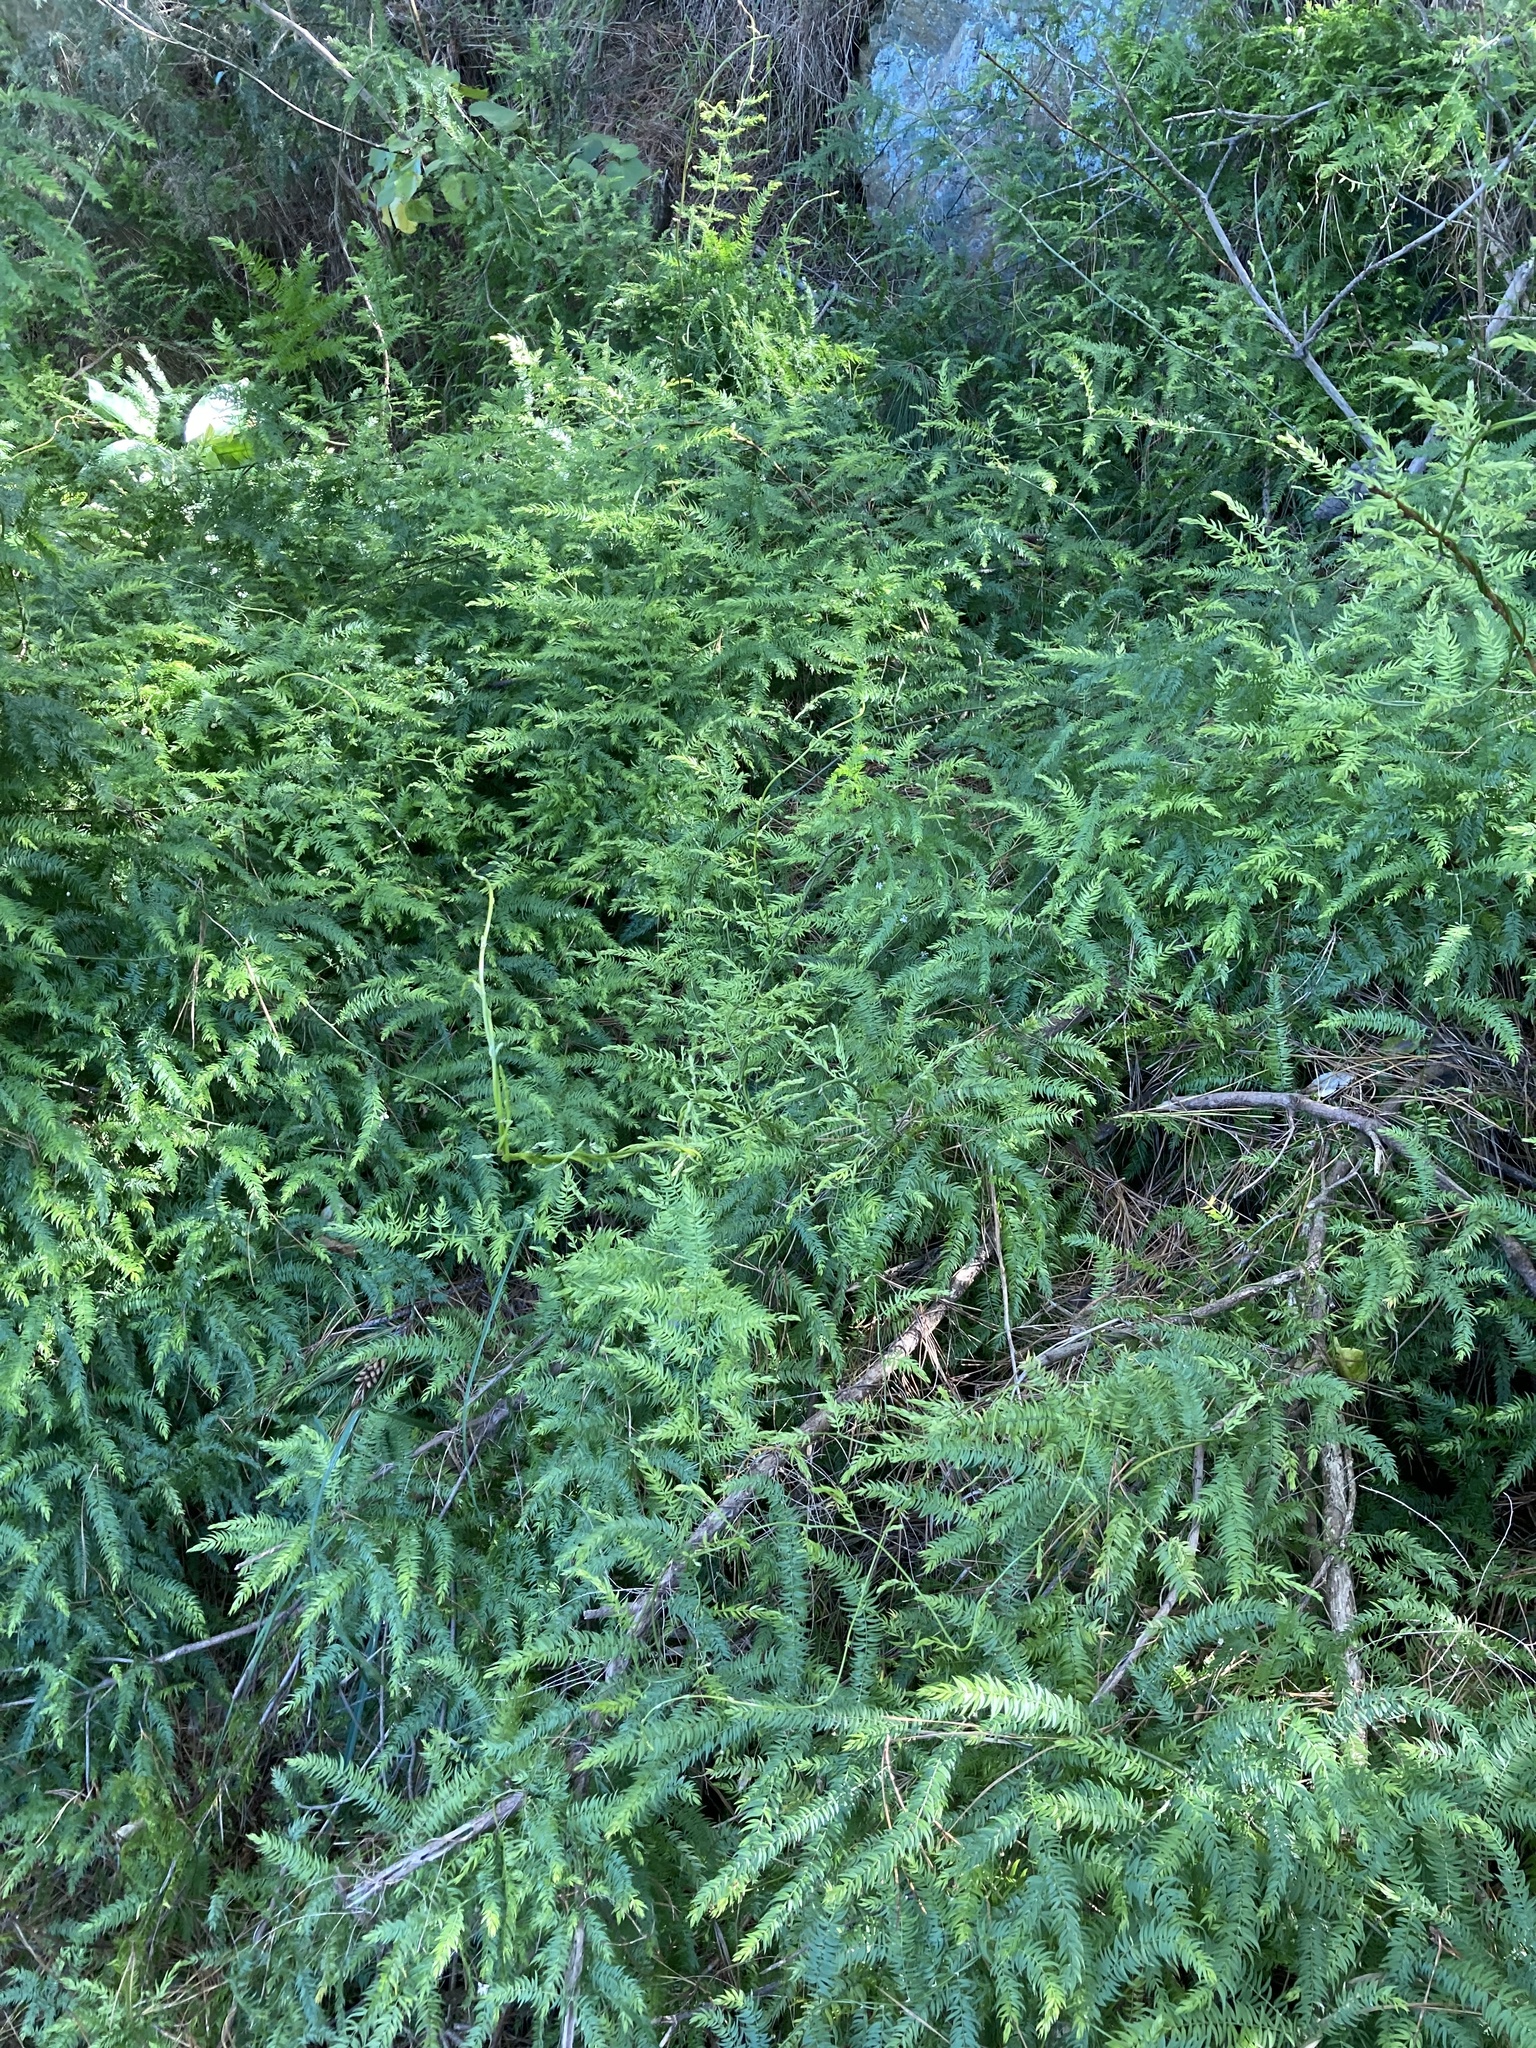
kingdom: Plantae
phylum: Tracheophyta
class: Liliopsida
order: Asparagales
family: Asparagaceae
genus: Asparagus
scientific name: Asparagus scandens
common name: Asparagus-fern
